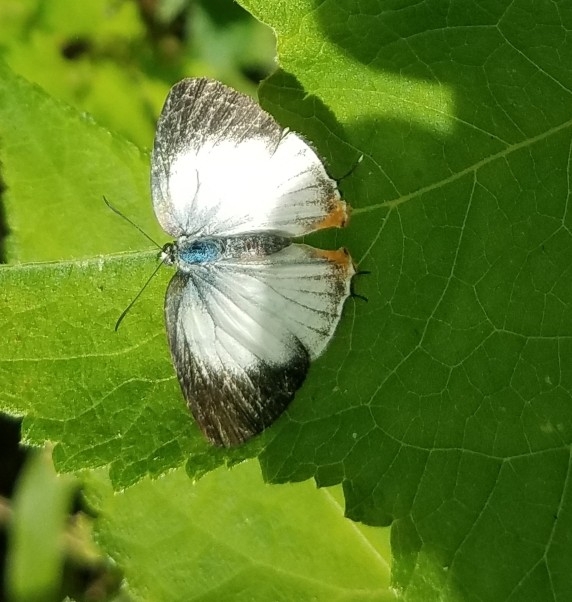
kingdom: Animalia
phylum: Arthropoda
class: Insecta
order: Lepidoptera
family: Lycaenidae
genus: Arawacus
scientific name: Arawacus sito
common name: Fine-lined hairstreak
